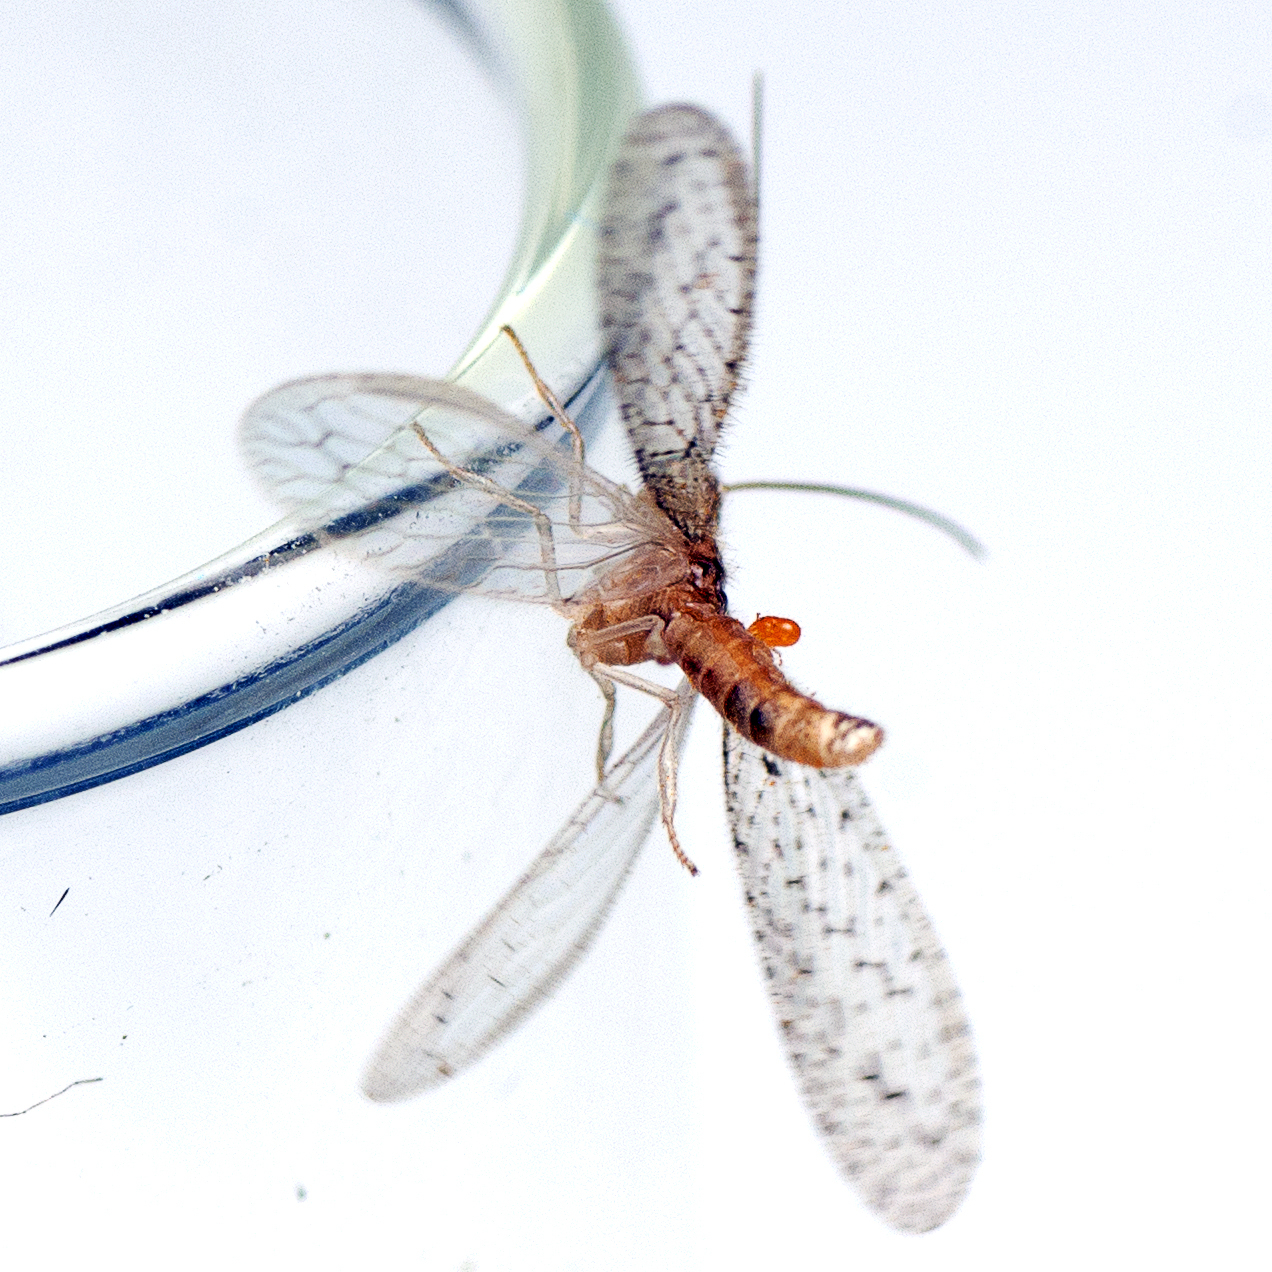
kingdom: Animalia
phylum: Arthropoda
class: Insecta
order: Neuroptera
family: Hemerobiidae
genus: Micromus
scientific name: Micromus tasmaniae
